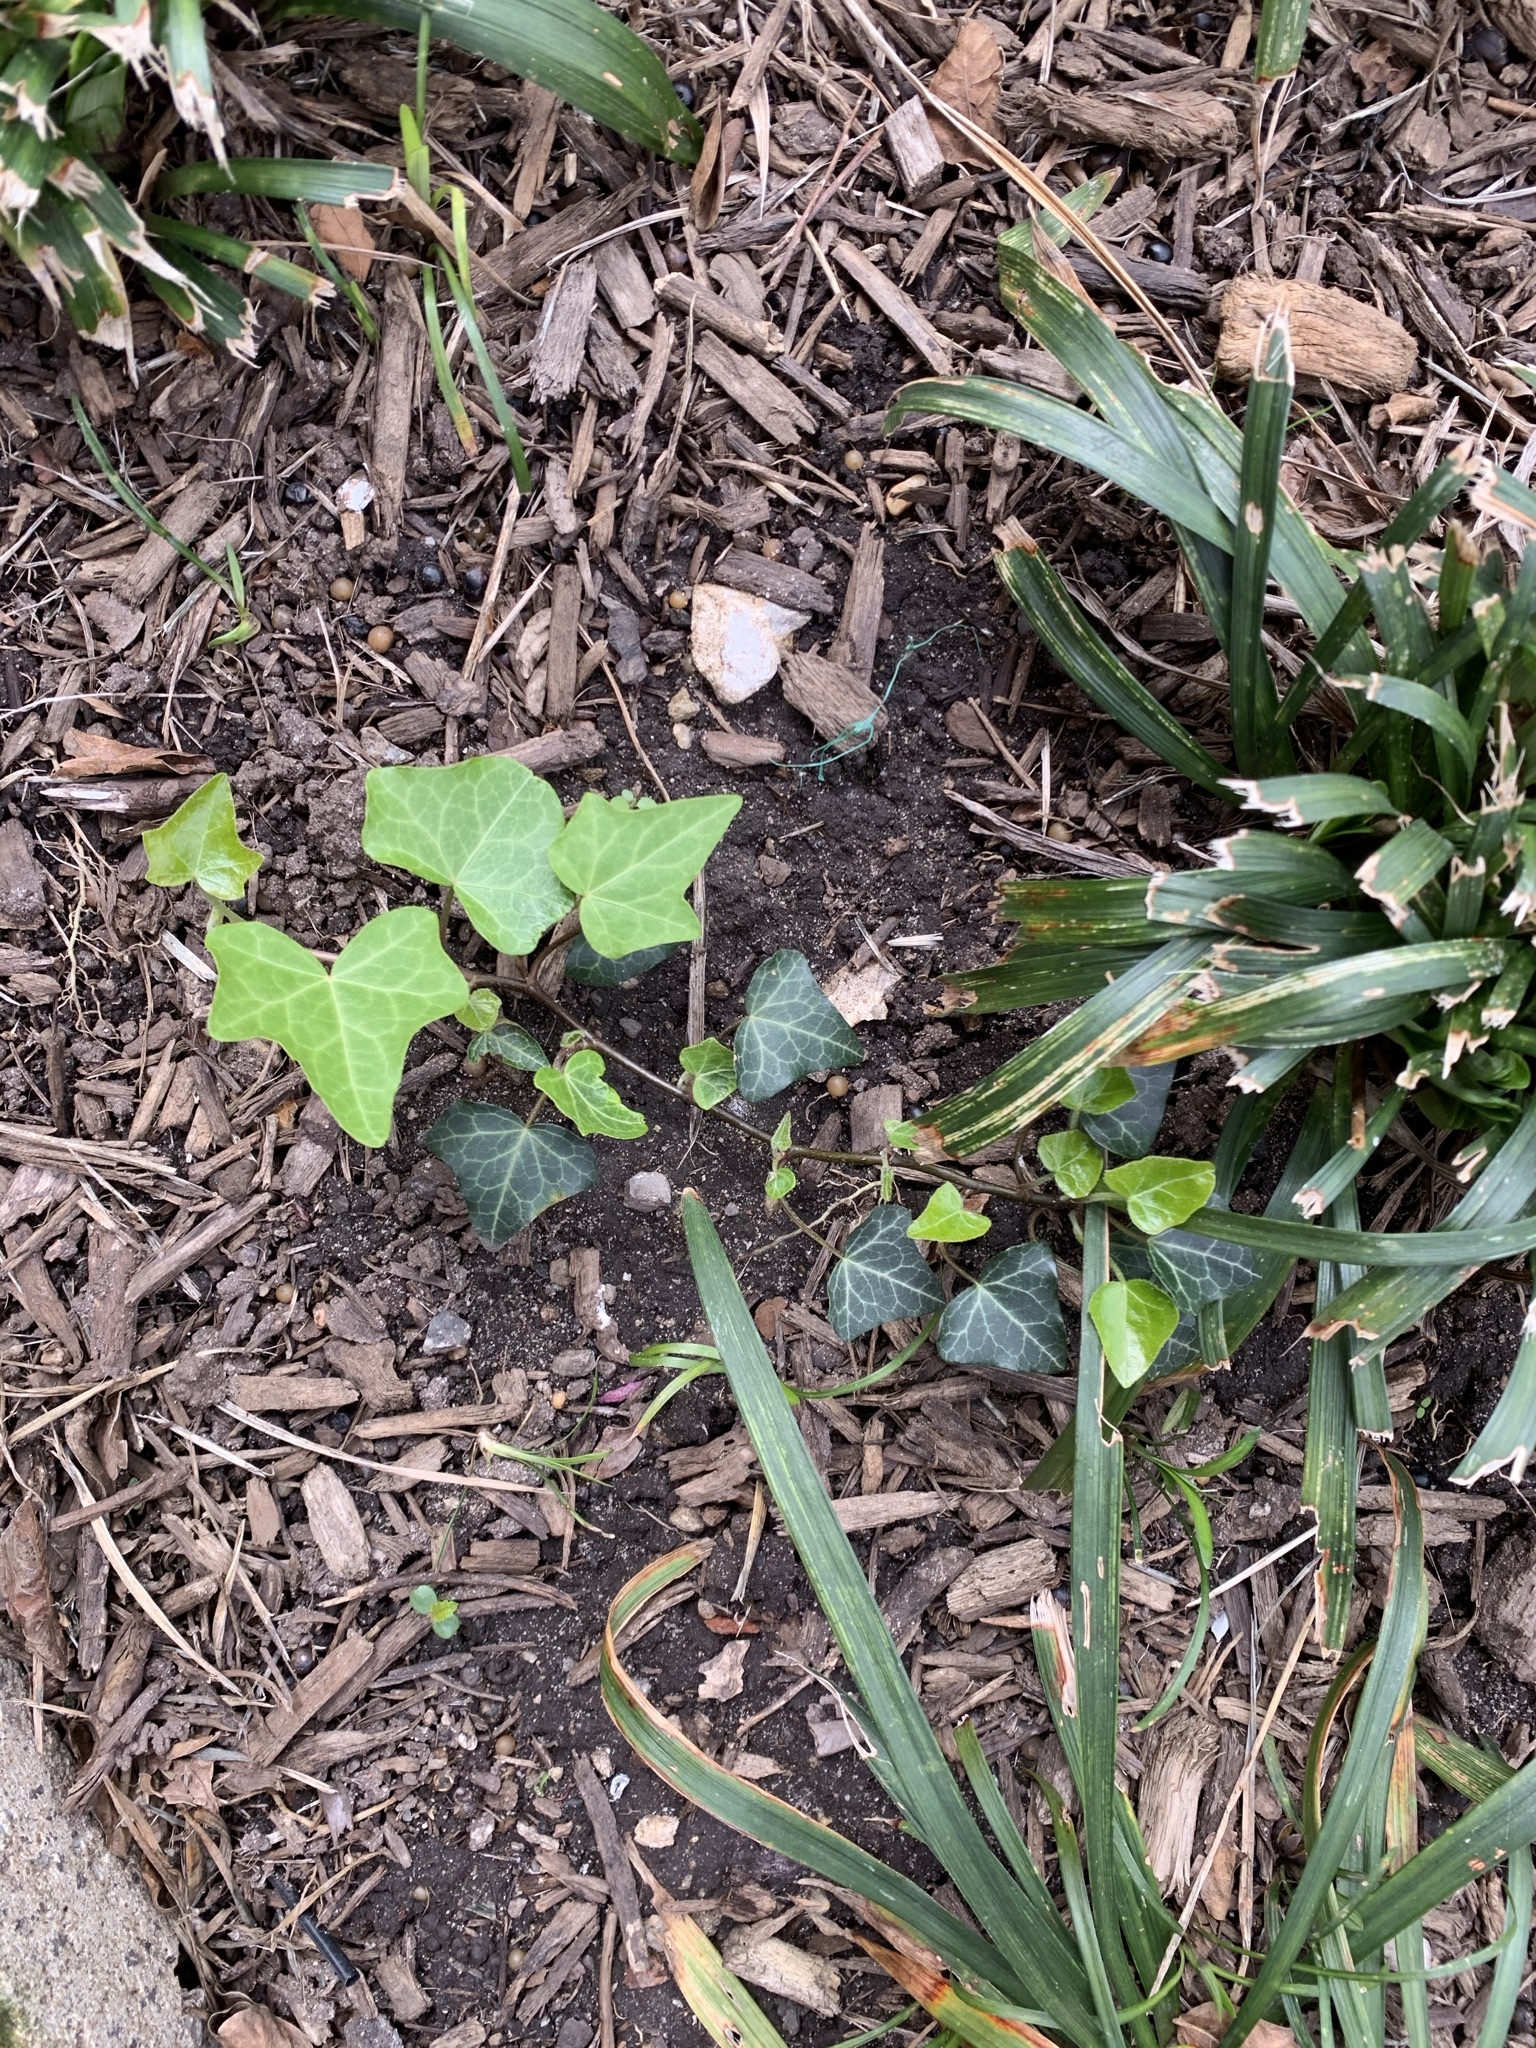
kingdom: Plantae
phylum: Tracheophyta
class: Magnoliopsida
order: Apiales
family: Araliaceae
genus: Hedera
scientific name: Hedera helix
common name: Ivy
